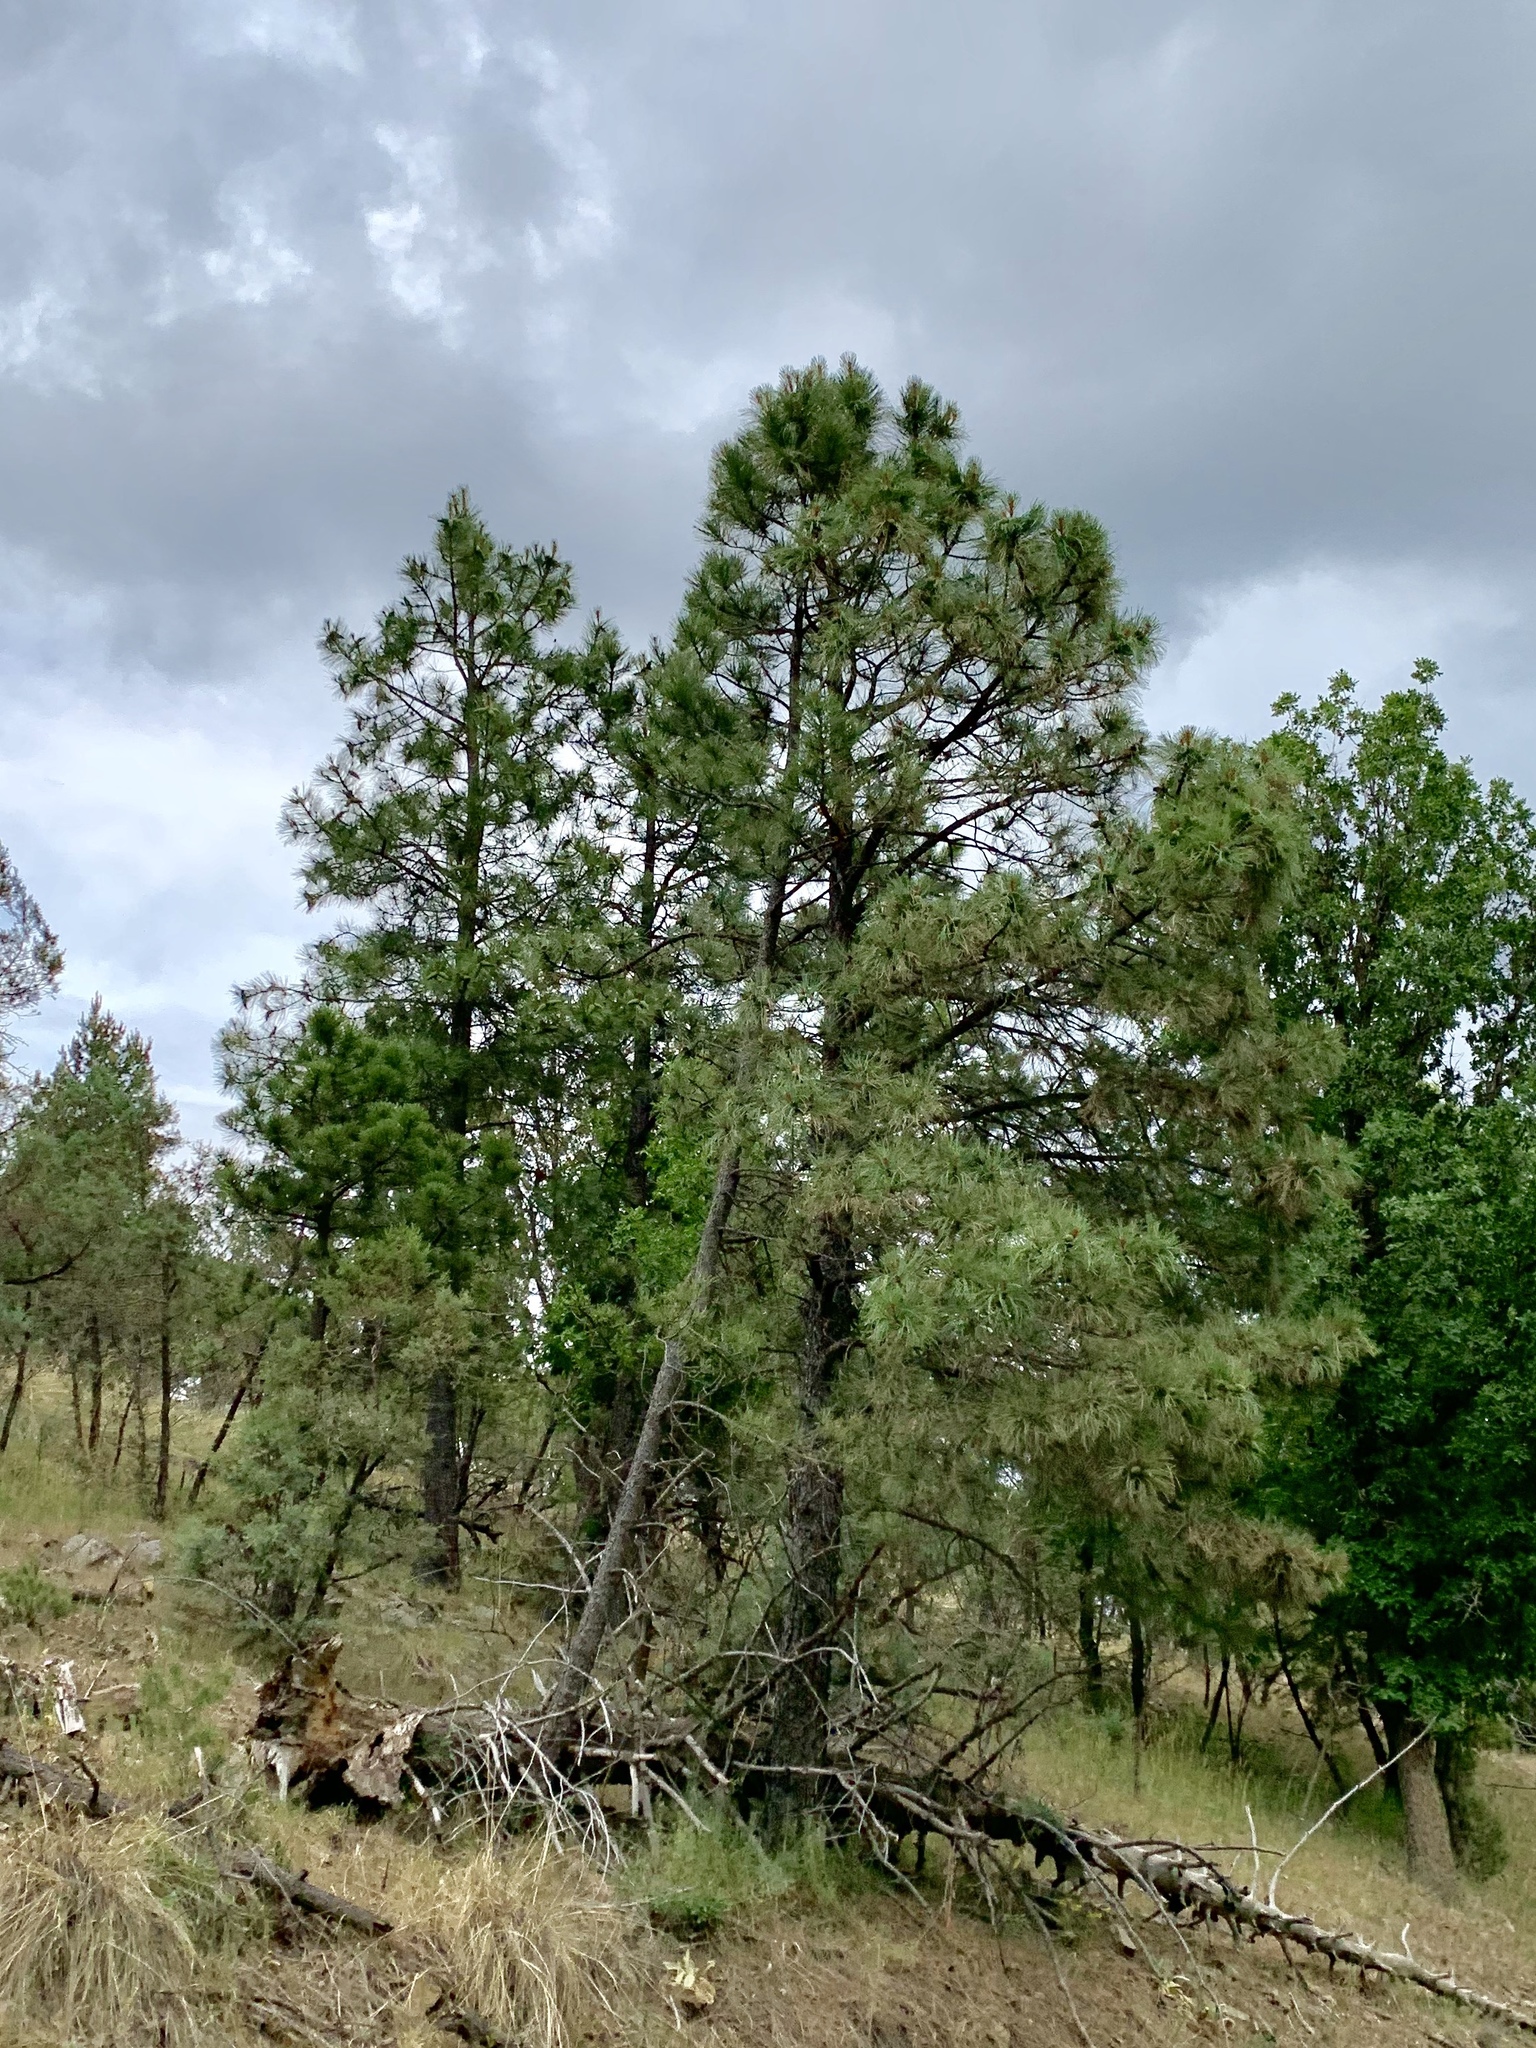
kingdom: Plantae
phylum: Tracheophyta
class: Pinopsida
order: Pinales
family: Pinaceae
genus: Pinus
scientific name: Pinus ponderosa
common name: Western yellow-pine
